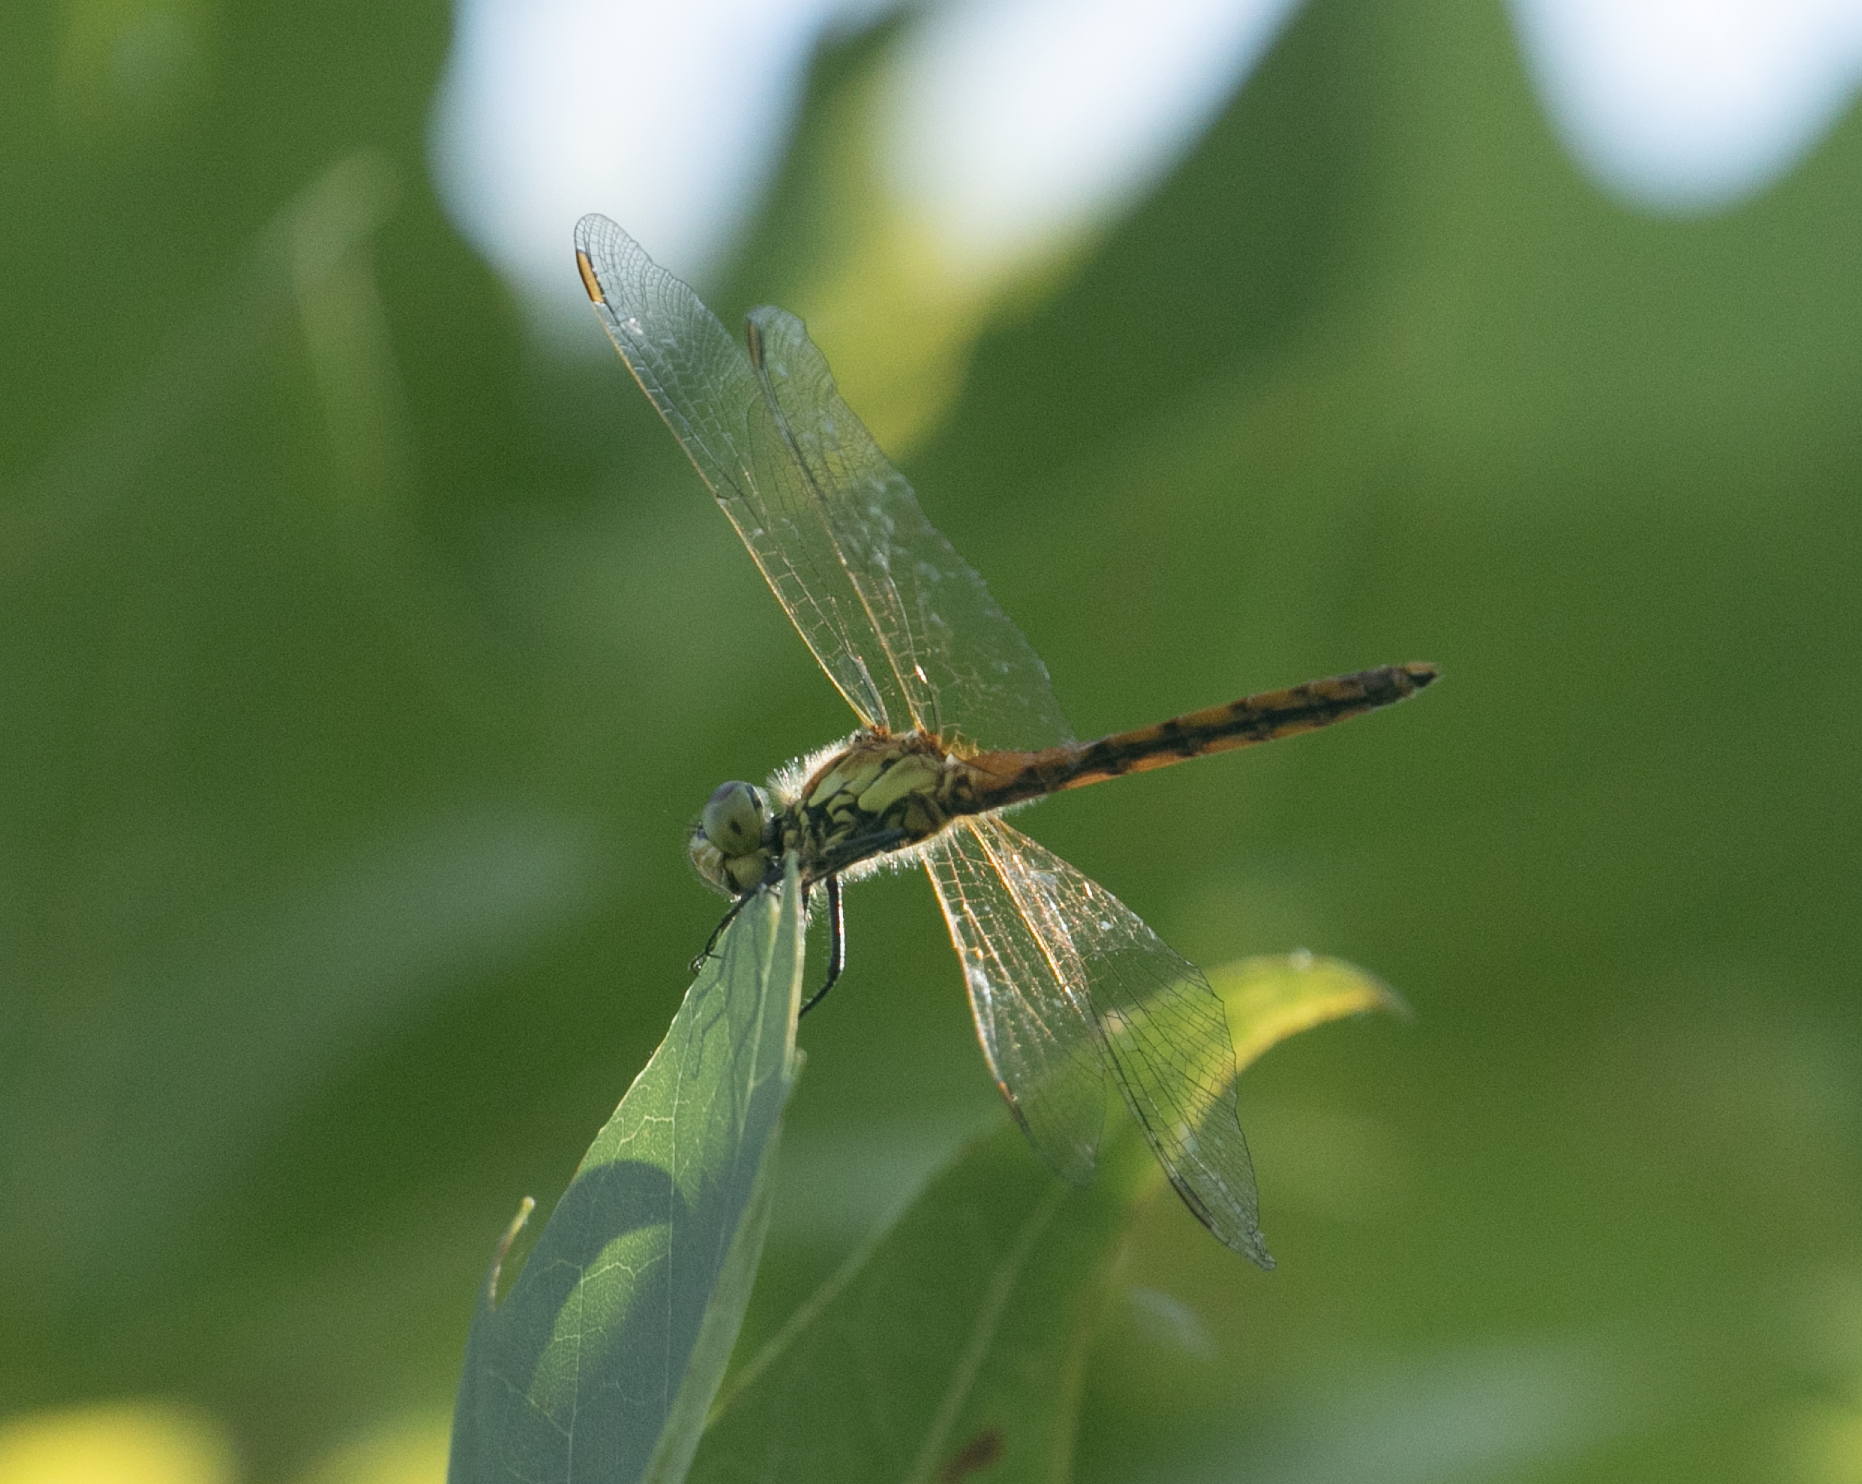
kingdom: Animalia
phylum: Arthropoda
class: Insecta
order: Odonata
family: Libellulidae
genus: Sympetrum
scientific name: Sympetrum depressiusculum
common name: Spotted darter
